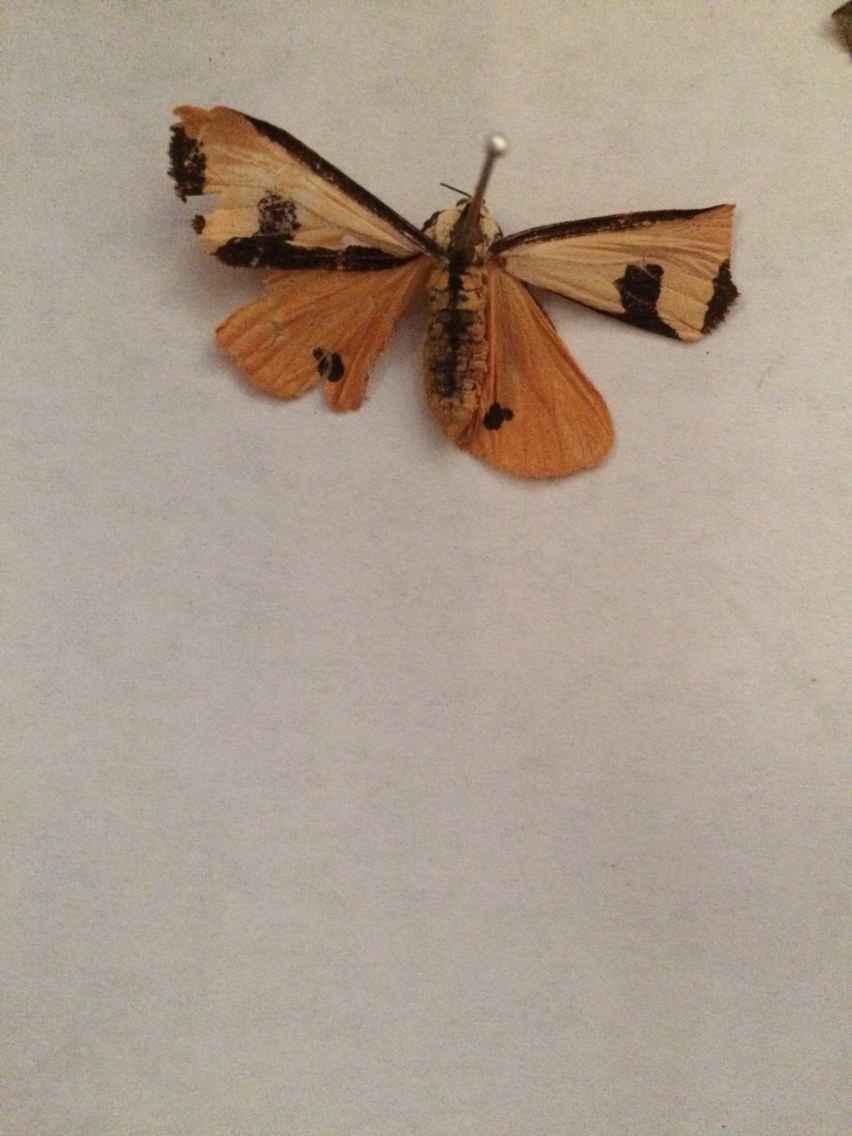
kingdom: Animalia
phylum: Arthropoda
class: Insecta
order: Lepidoptera
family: Erebidae
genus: Haploa
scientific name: Haploa clymene
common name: Clymene moth
